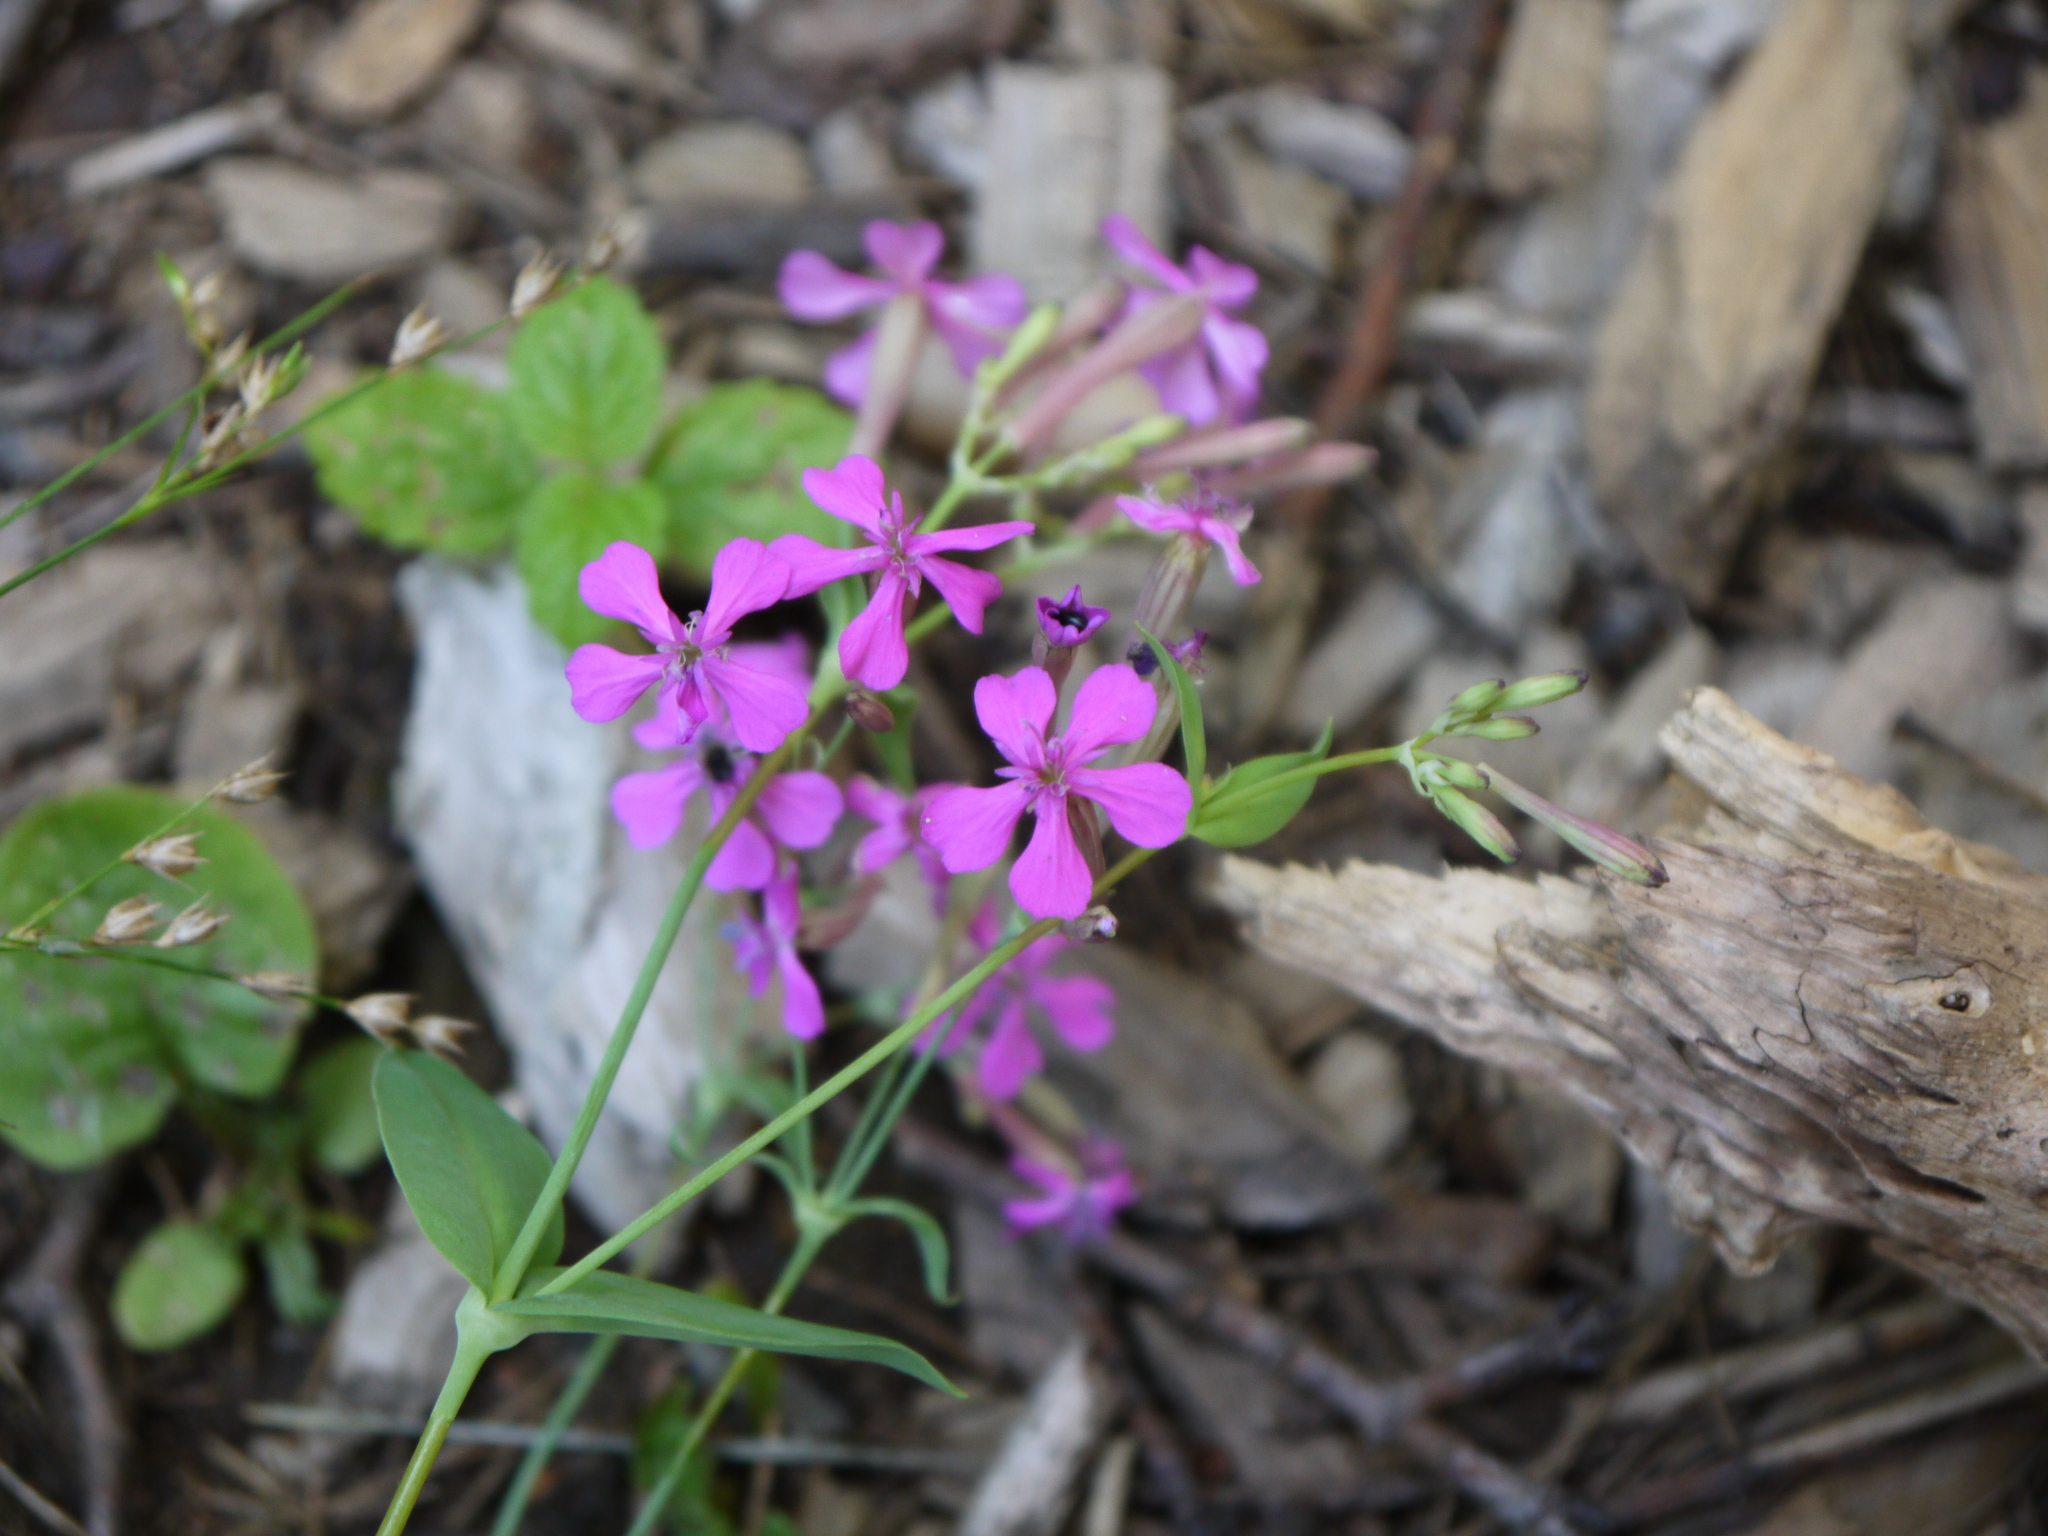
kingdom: Plantae
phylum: Tracheophyta
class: Magnoliopsida
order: Caryophyllales
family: Caryophyllaceae
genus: Atocion
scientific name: Atocion armeria
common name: Sweet william catchfly
